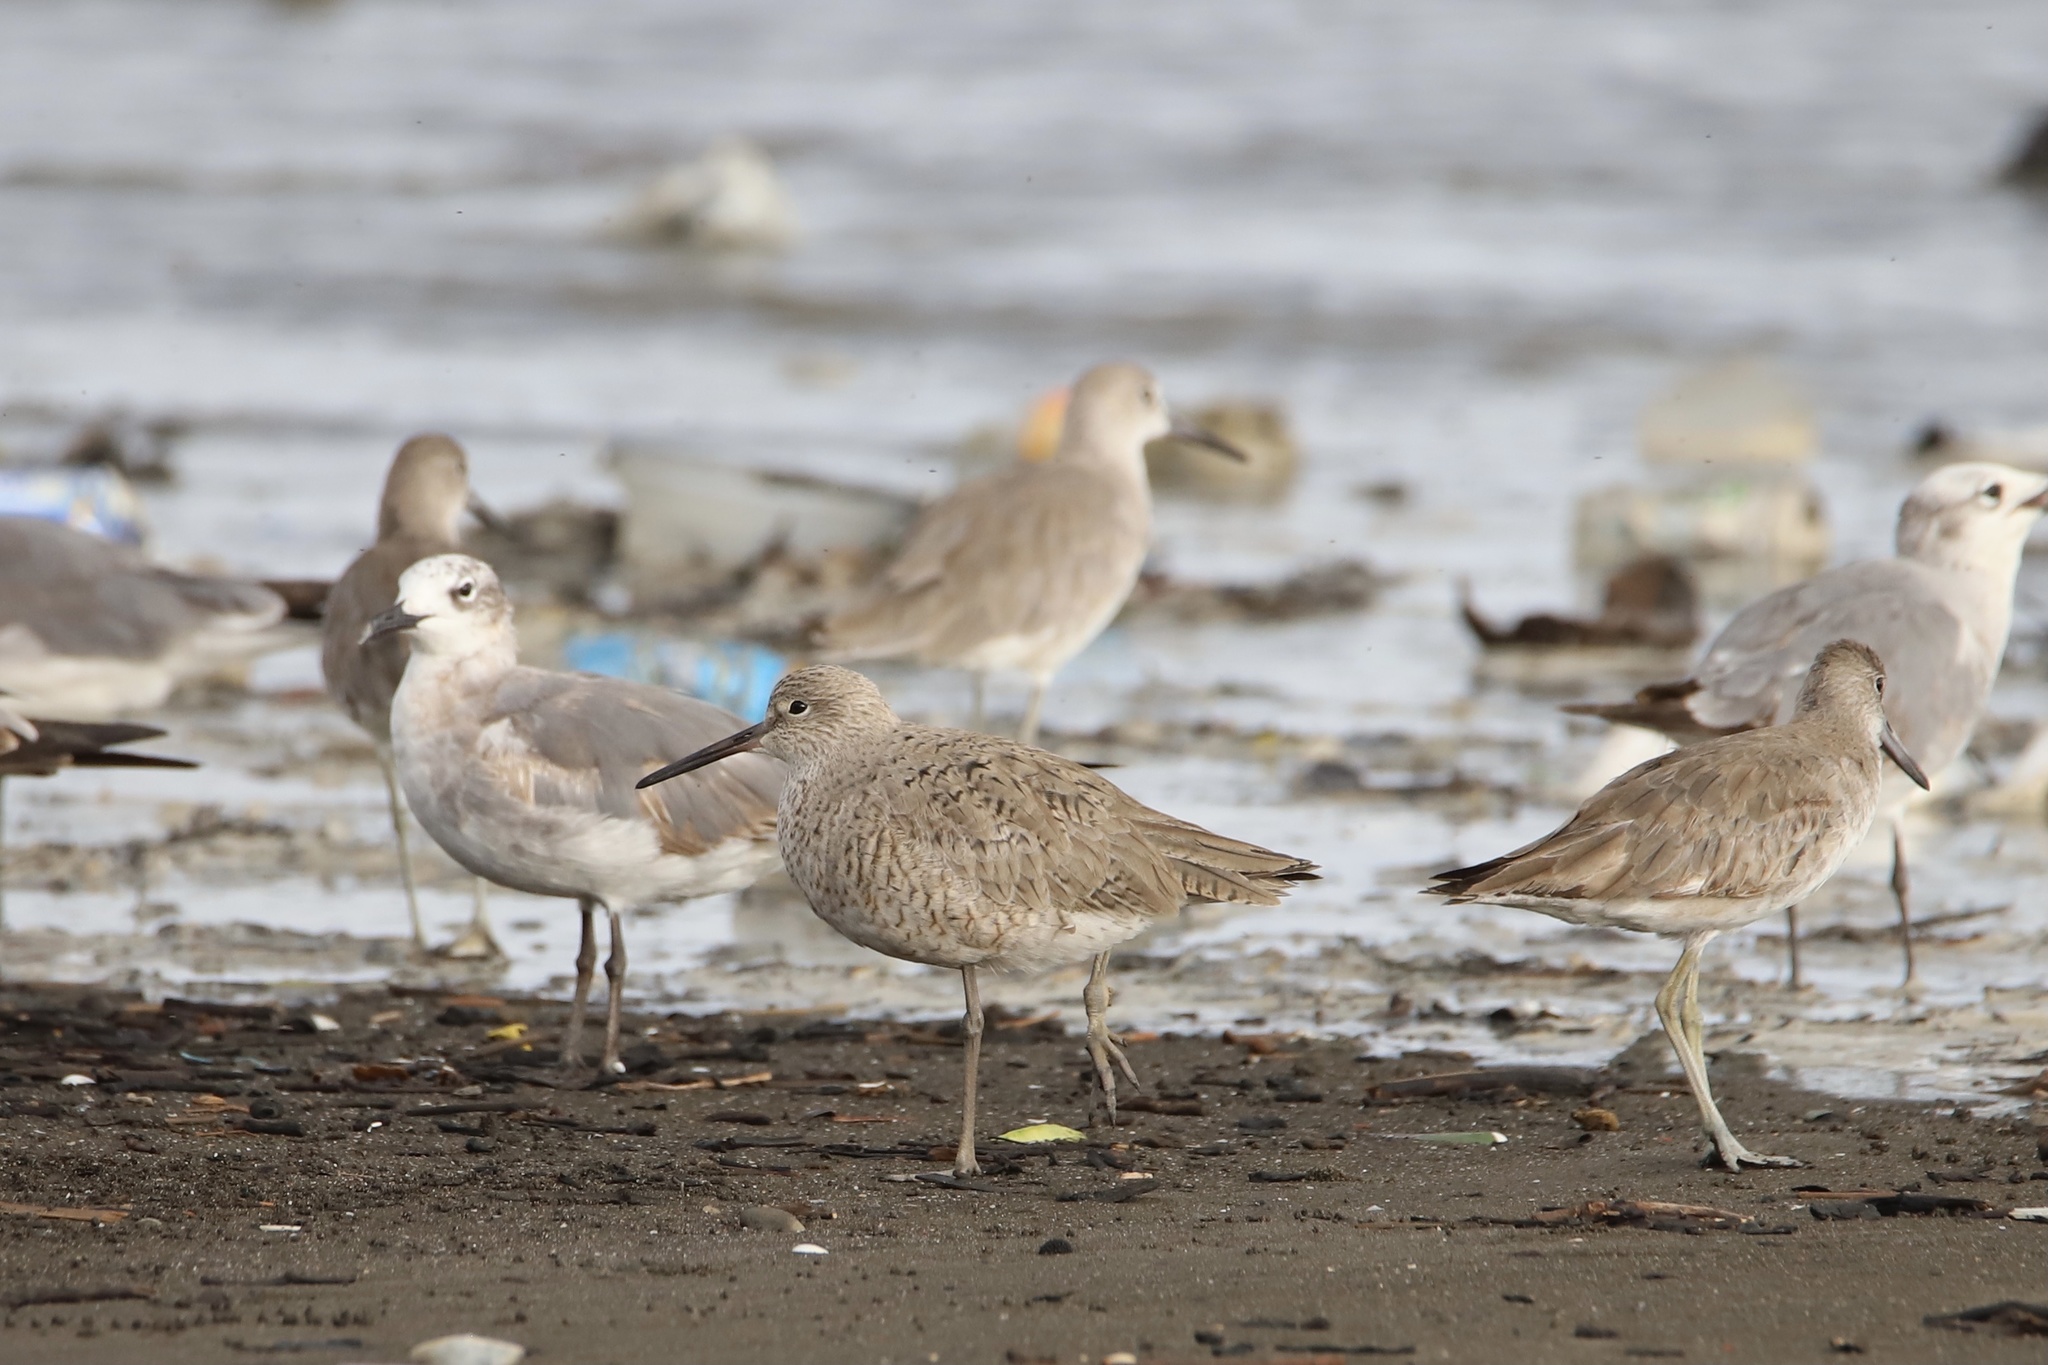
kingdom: Animalia
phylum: Chordata
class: Aves
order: Charadriiformes
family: Scolopacidae
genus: Tringa
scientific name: Tringa semipalmata
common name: Willet
